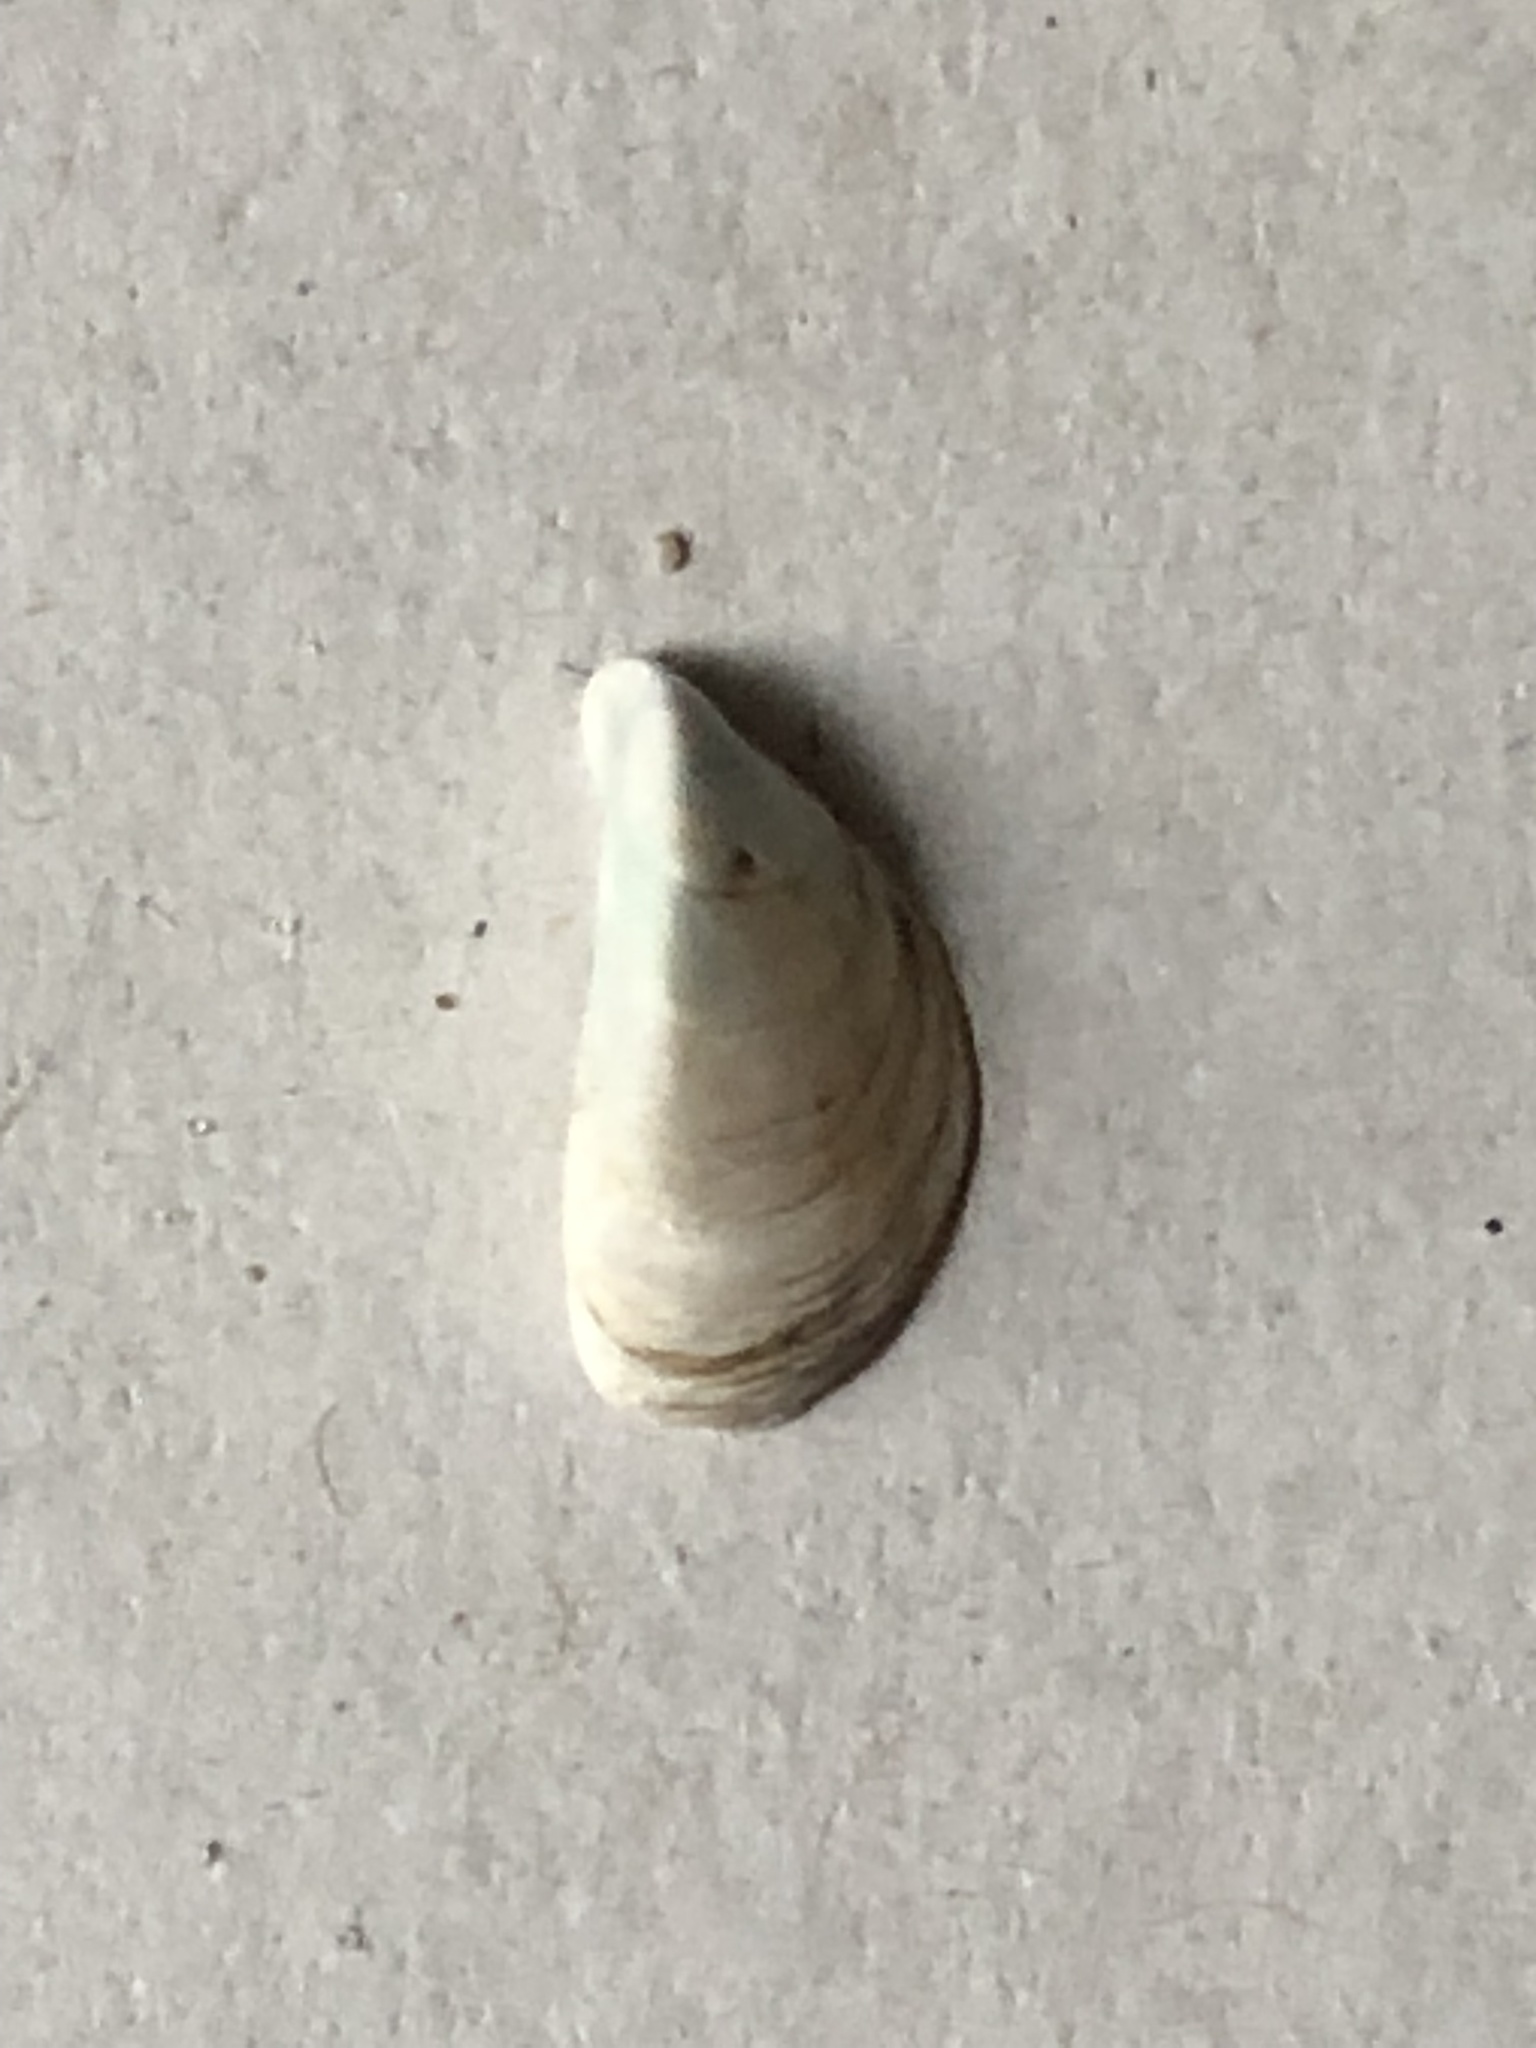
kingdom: Animalia
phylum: Mollusca
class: Bivalvia
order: Myida
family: Dreissenidae
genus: Dreissena
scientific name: Dreissena polymorpha
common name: Zebra mussel
